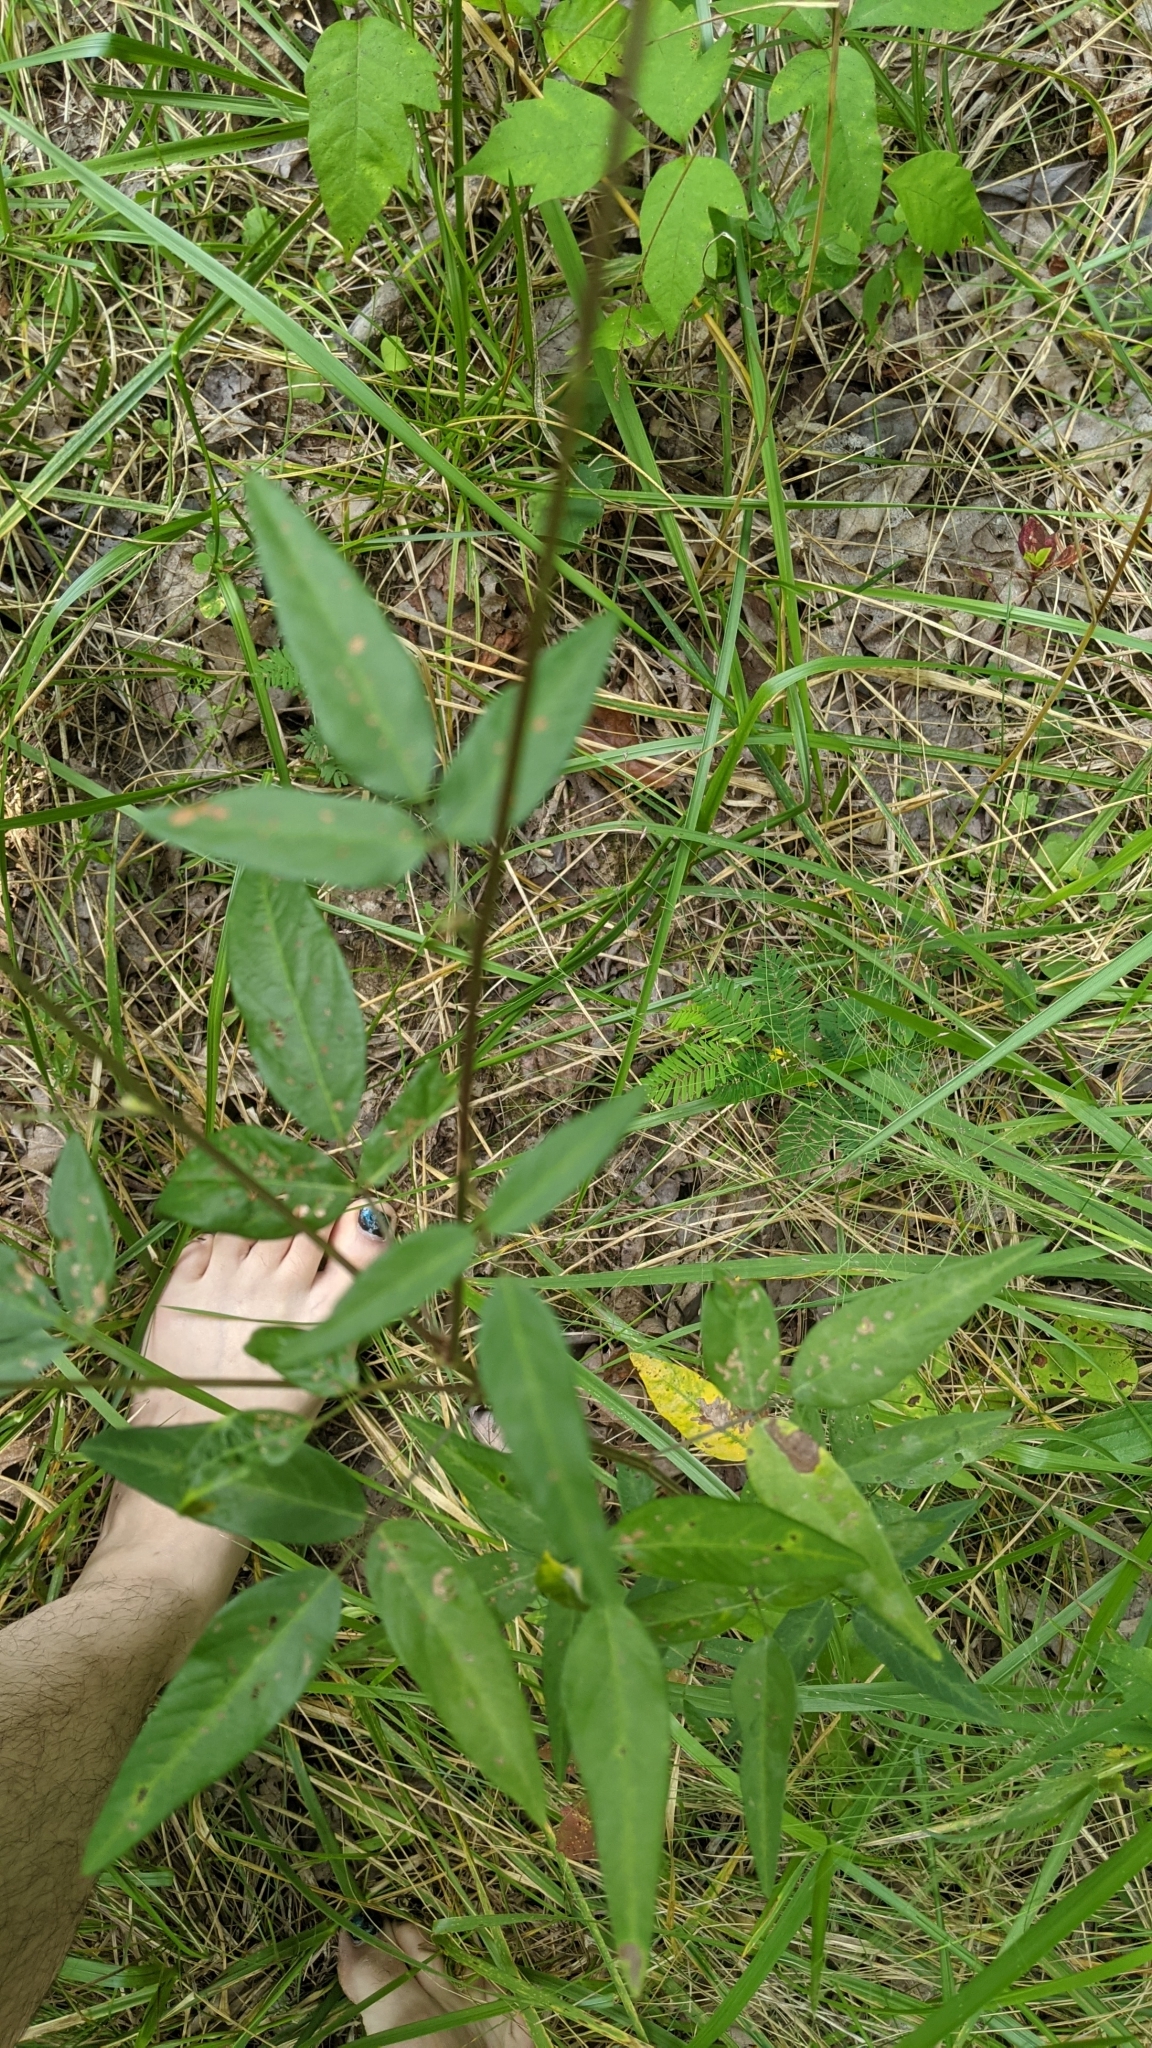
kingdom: Plantae
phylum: Tracheophyta
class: Magnoliopsida
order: Fabales
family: Fabaceae
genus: Desmodium
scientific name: Desmodium paniculatum
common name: Panicled tick-clover
